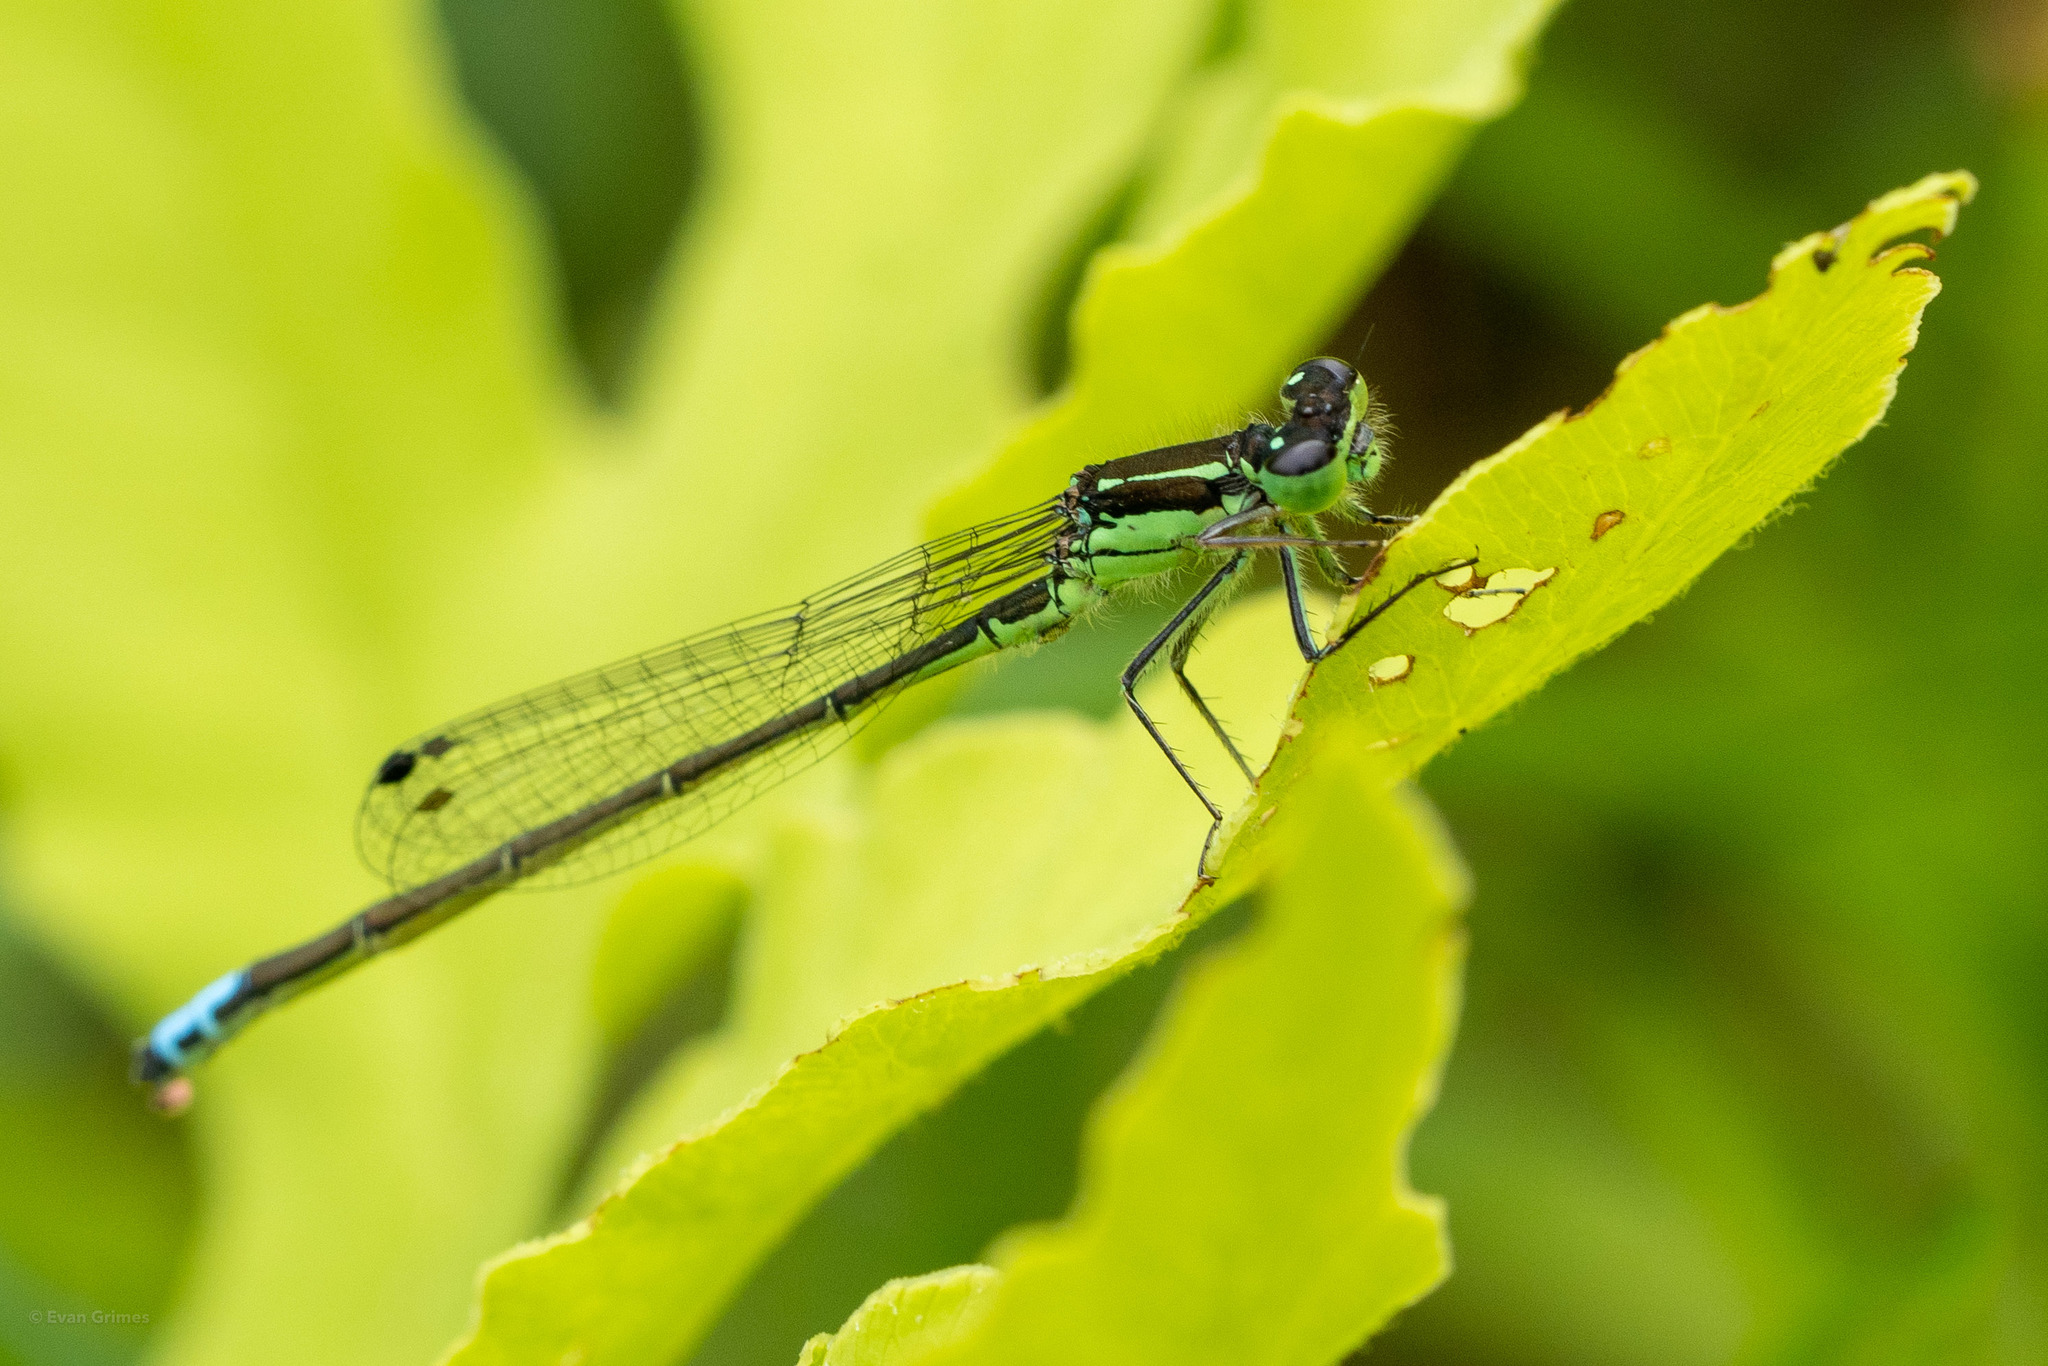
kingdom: Animalia
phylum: Arthropoda
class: Insecta
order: Odonata
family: Coenagrionidae
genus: Ischnura
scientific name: Ischnura verticalis
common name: Eastern forktail
